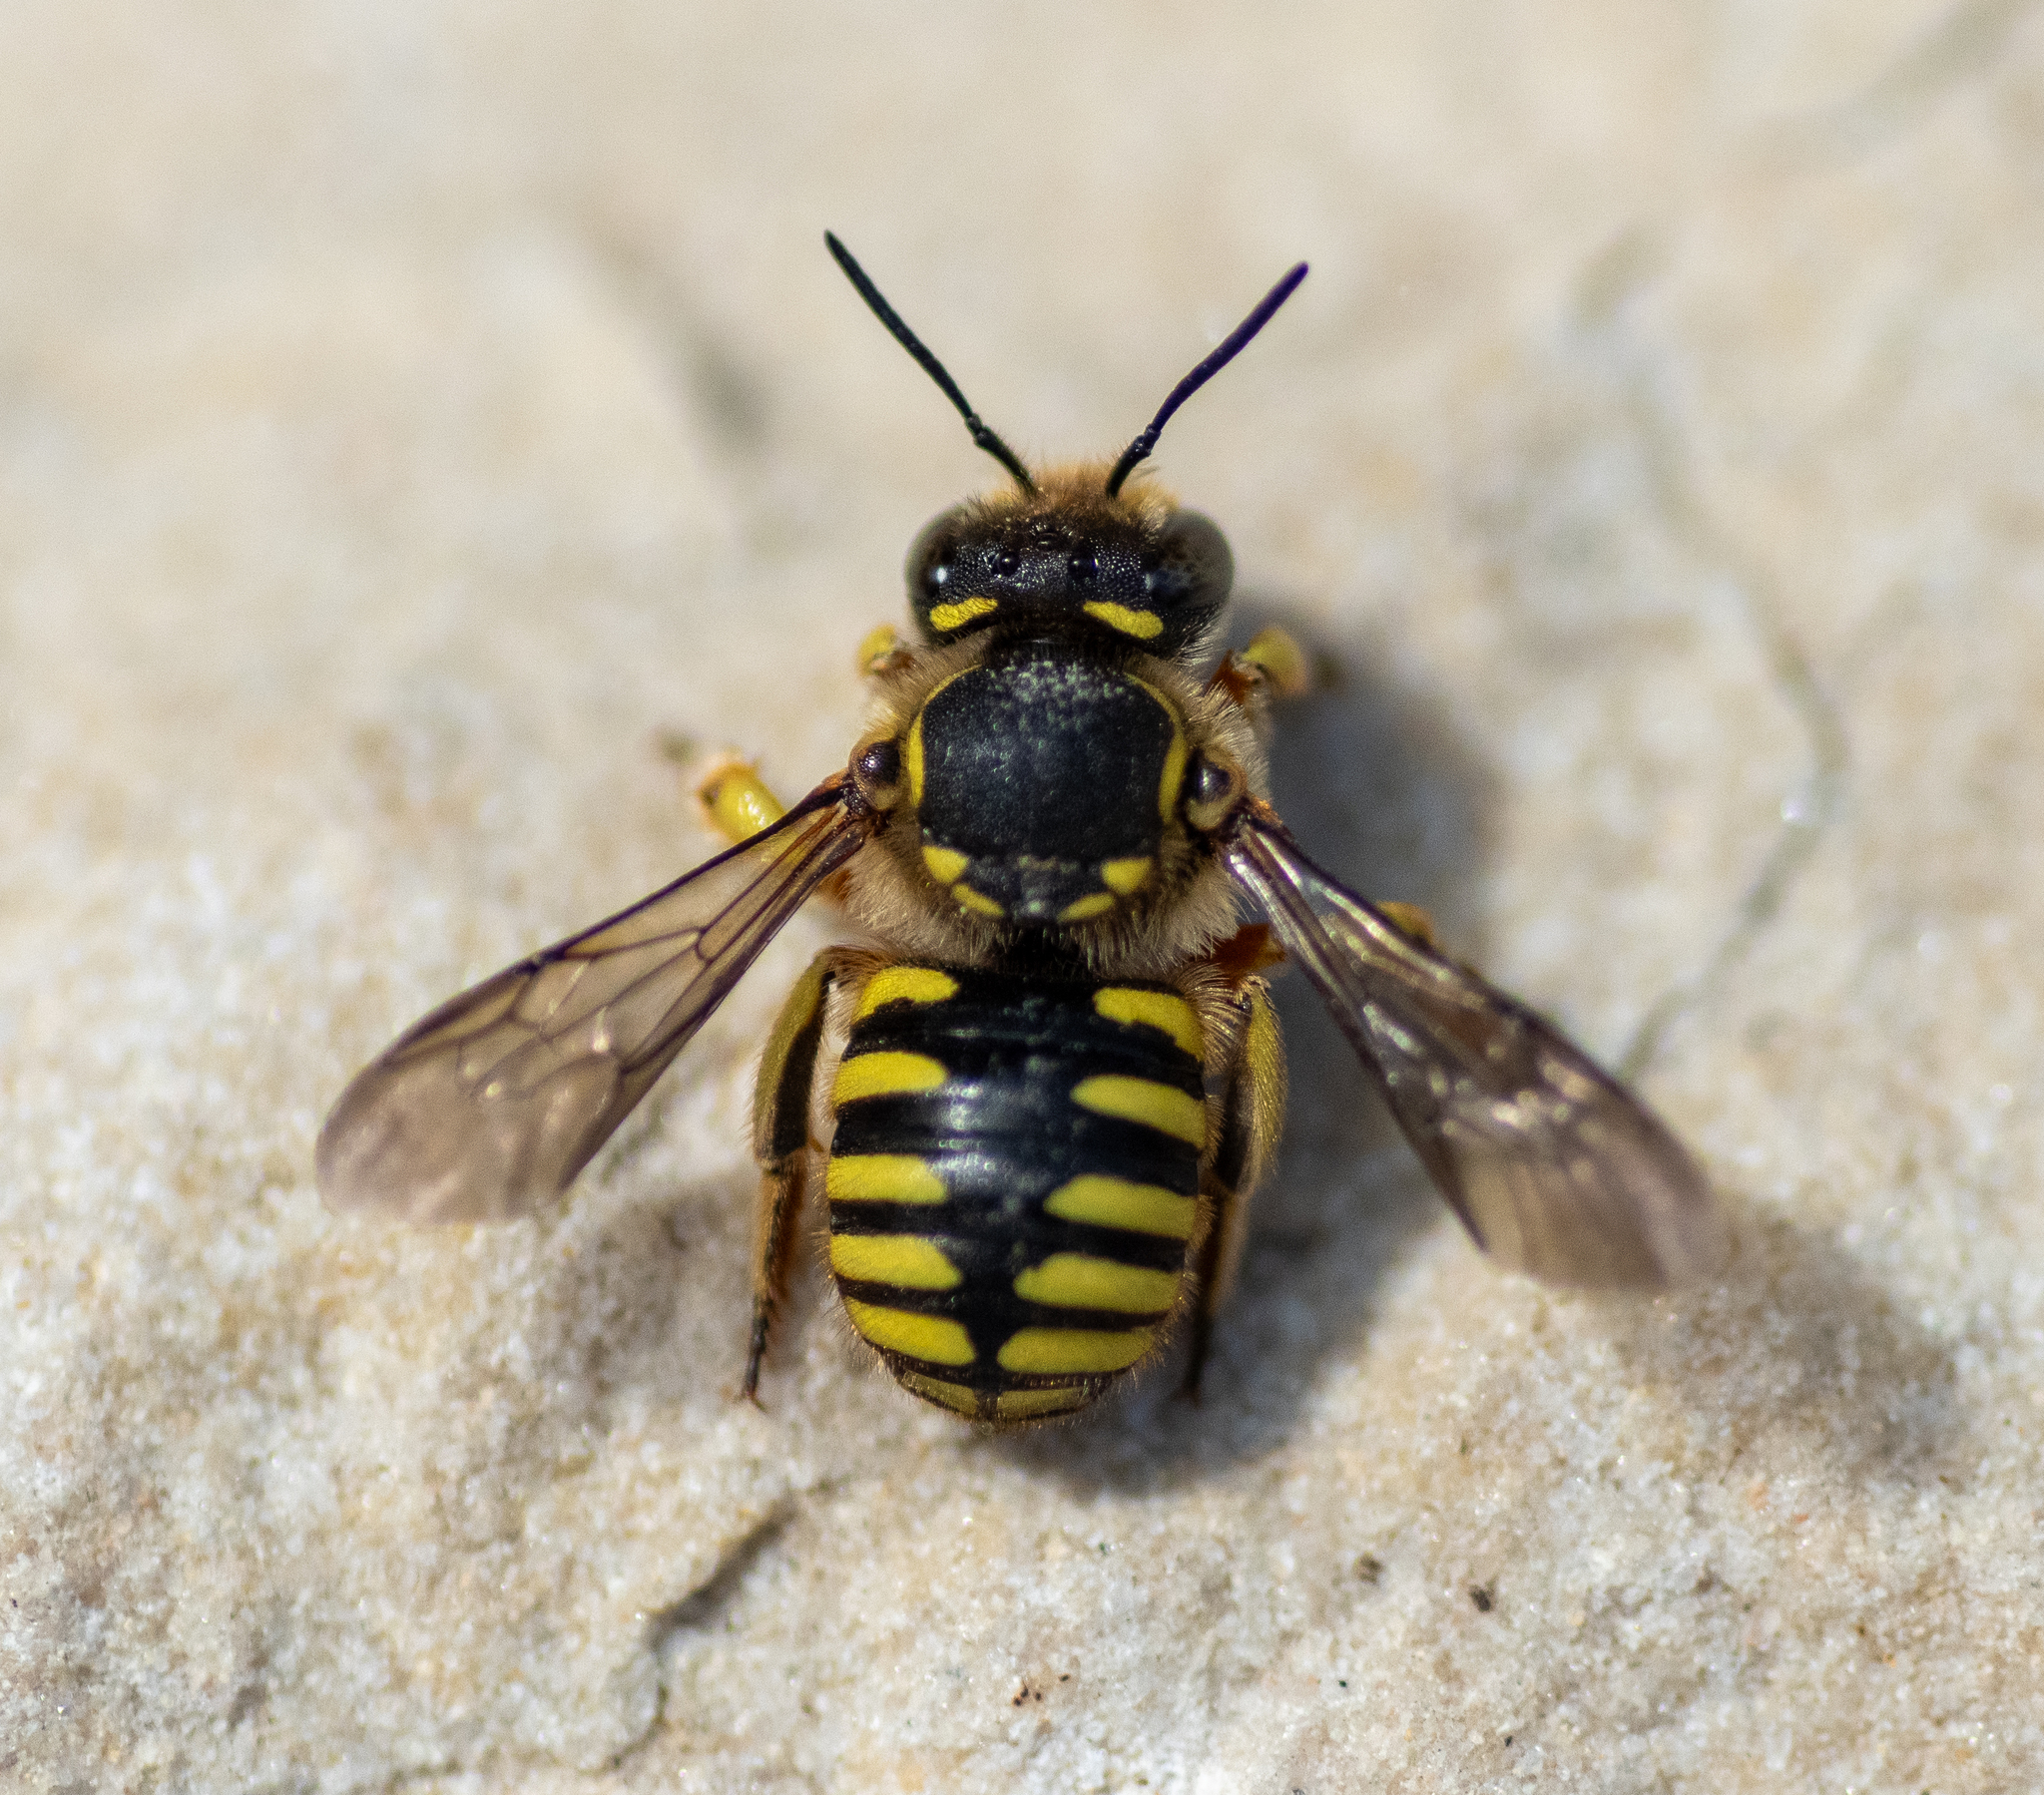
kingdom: Animalia
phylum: Arthropoda
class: Insecta
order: Hymenoptera
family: Megachilidae
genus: Anthidium
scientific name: Anthidium manicatum
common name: Wool carder bee
